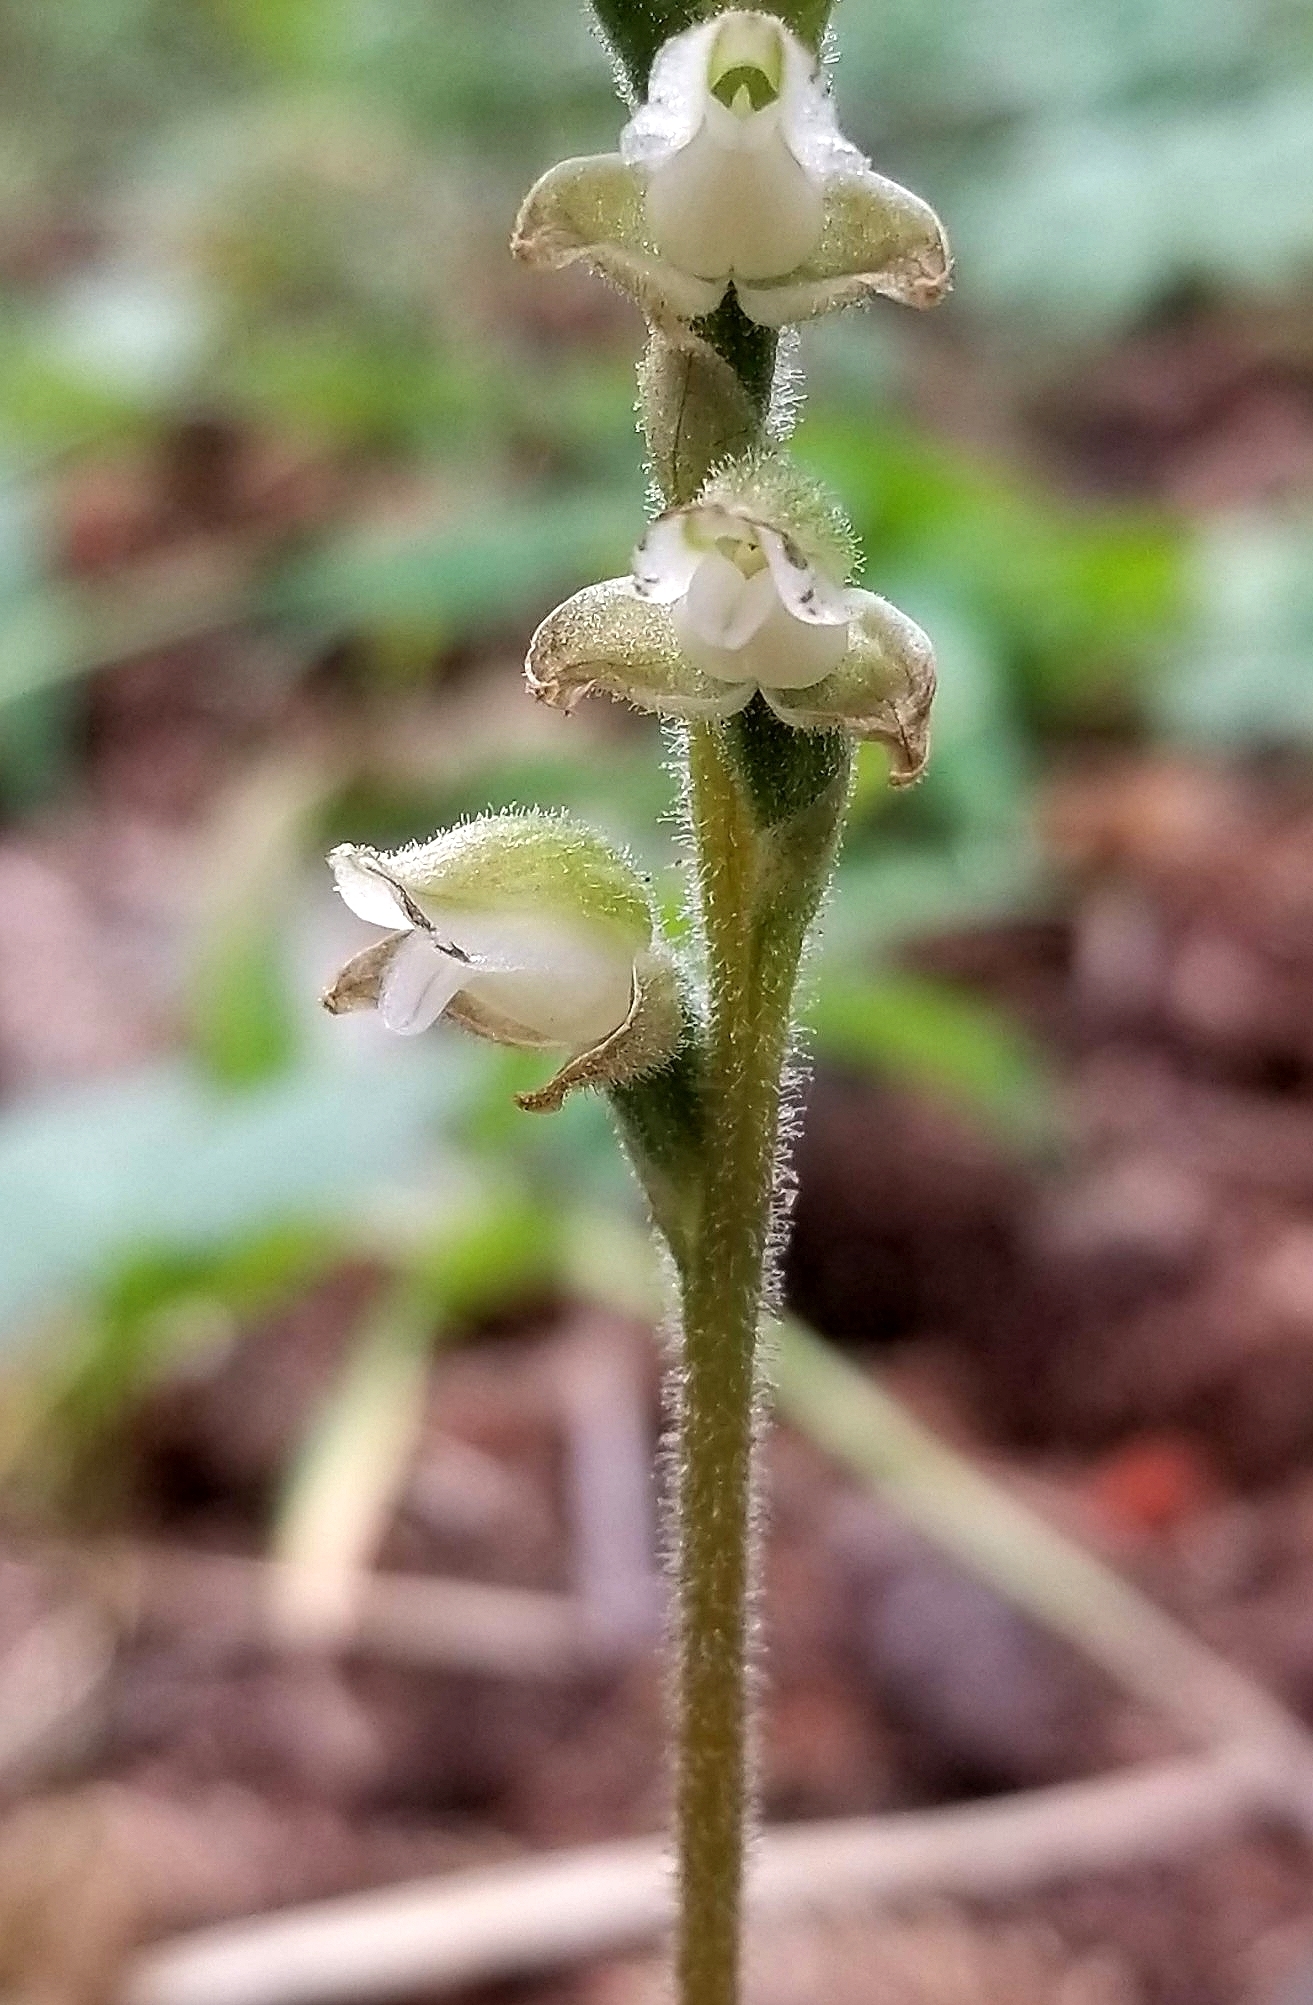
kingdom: Plantae
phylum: Tracheophyta
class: Liliopsida
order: Asparagales
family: Orchidaceae
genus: Goodyera
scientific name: Goodyera oblongifolia
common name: Giant rattlesnake-plantain
